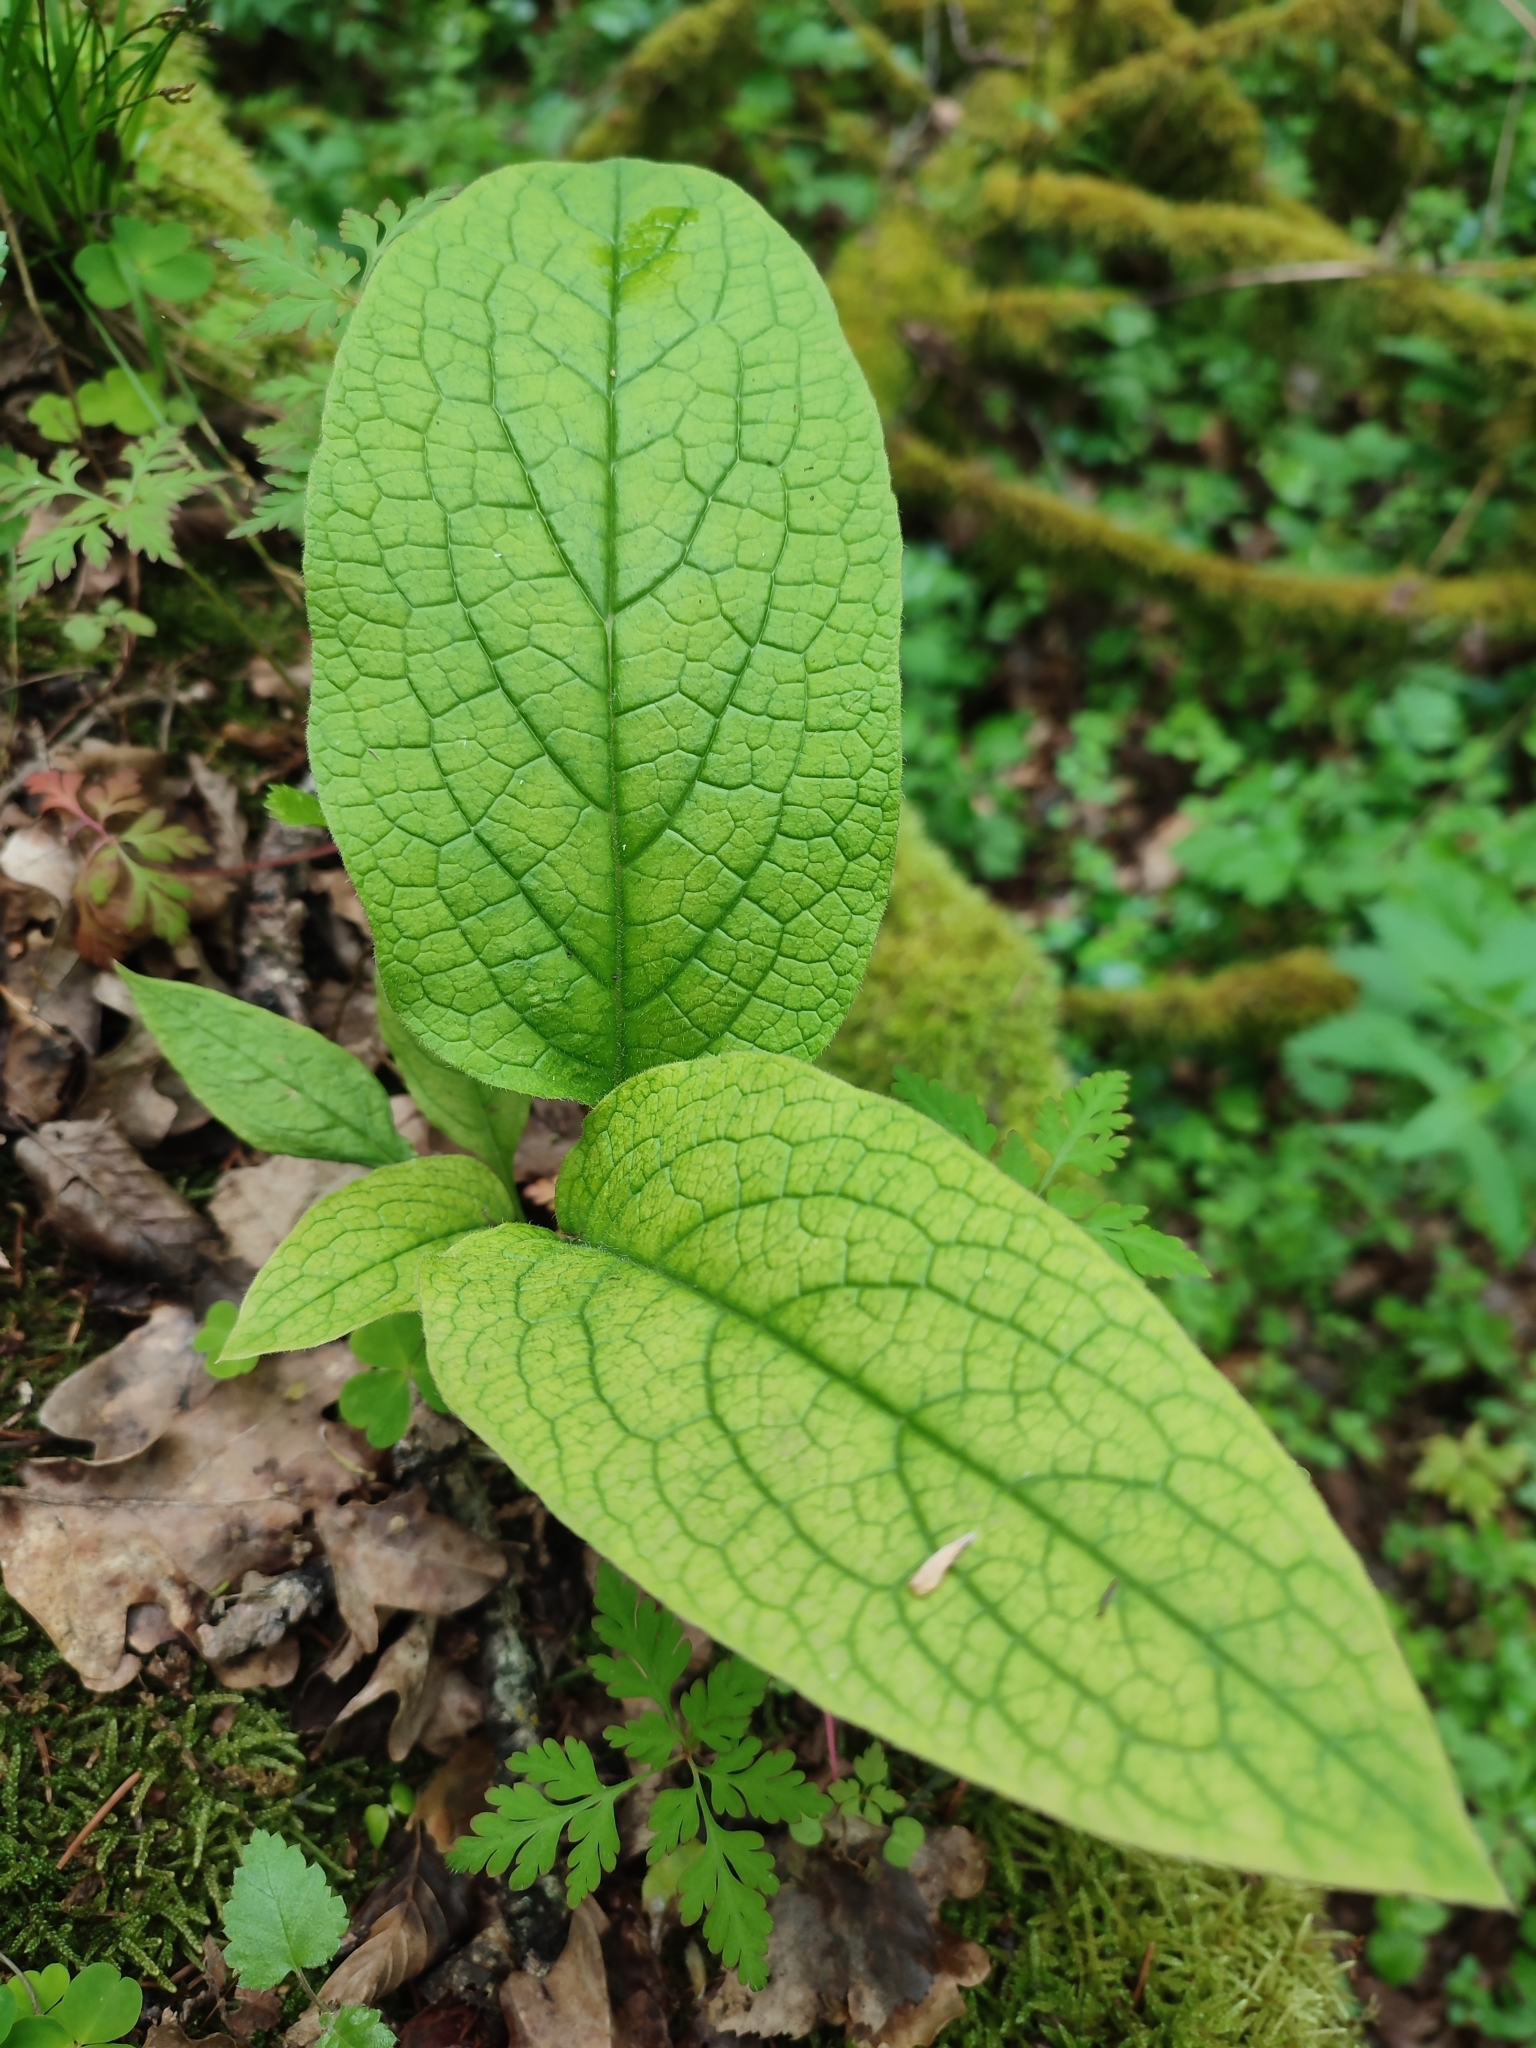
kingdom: Plantae
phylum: Tracheophyta
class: Magnoliopsida
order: Boraginales
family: Boraginaceae
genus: Symphytum
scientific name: Symphytum officinale
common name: Common comfrey
